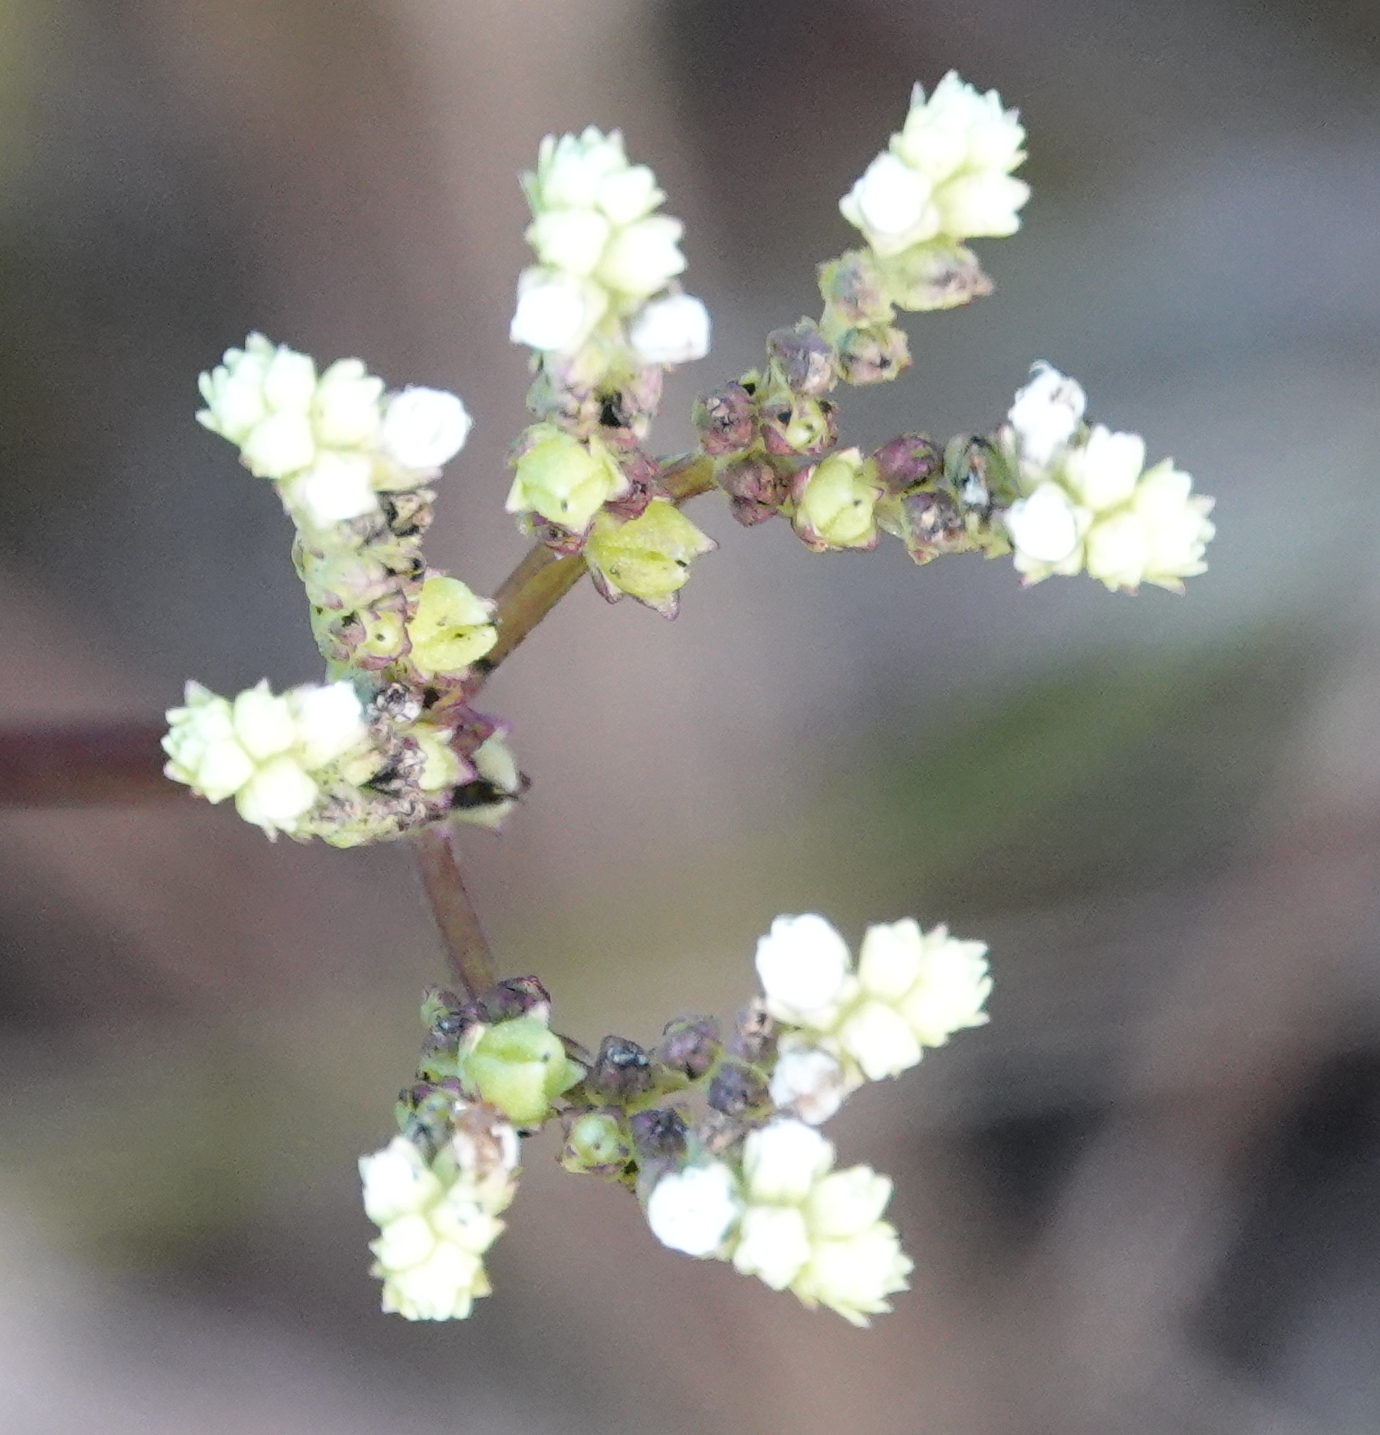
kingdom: Plantae
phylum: Tracheophyta
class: Magnoliopsida
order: Gentianales
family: Loganiaceae
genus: Mitreola
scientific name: Mitreola sessilifolia
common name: Swamp hornpod
